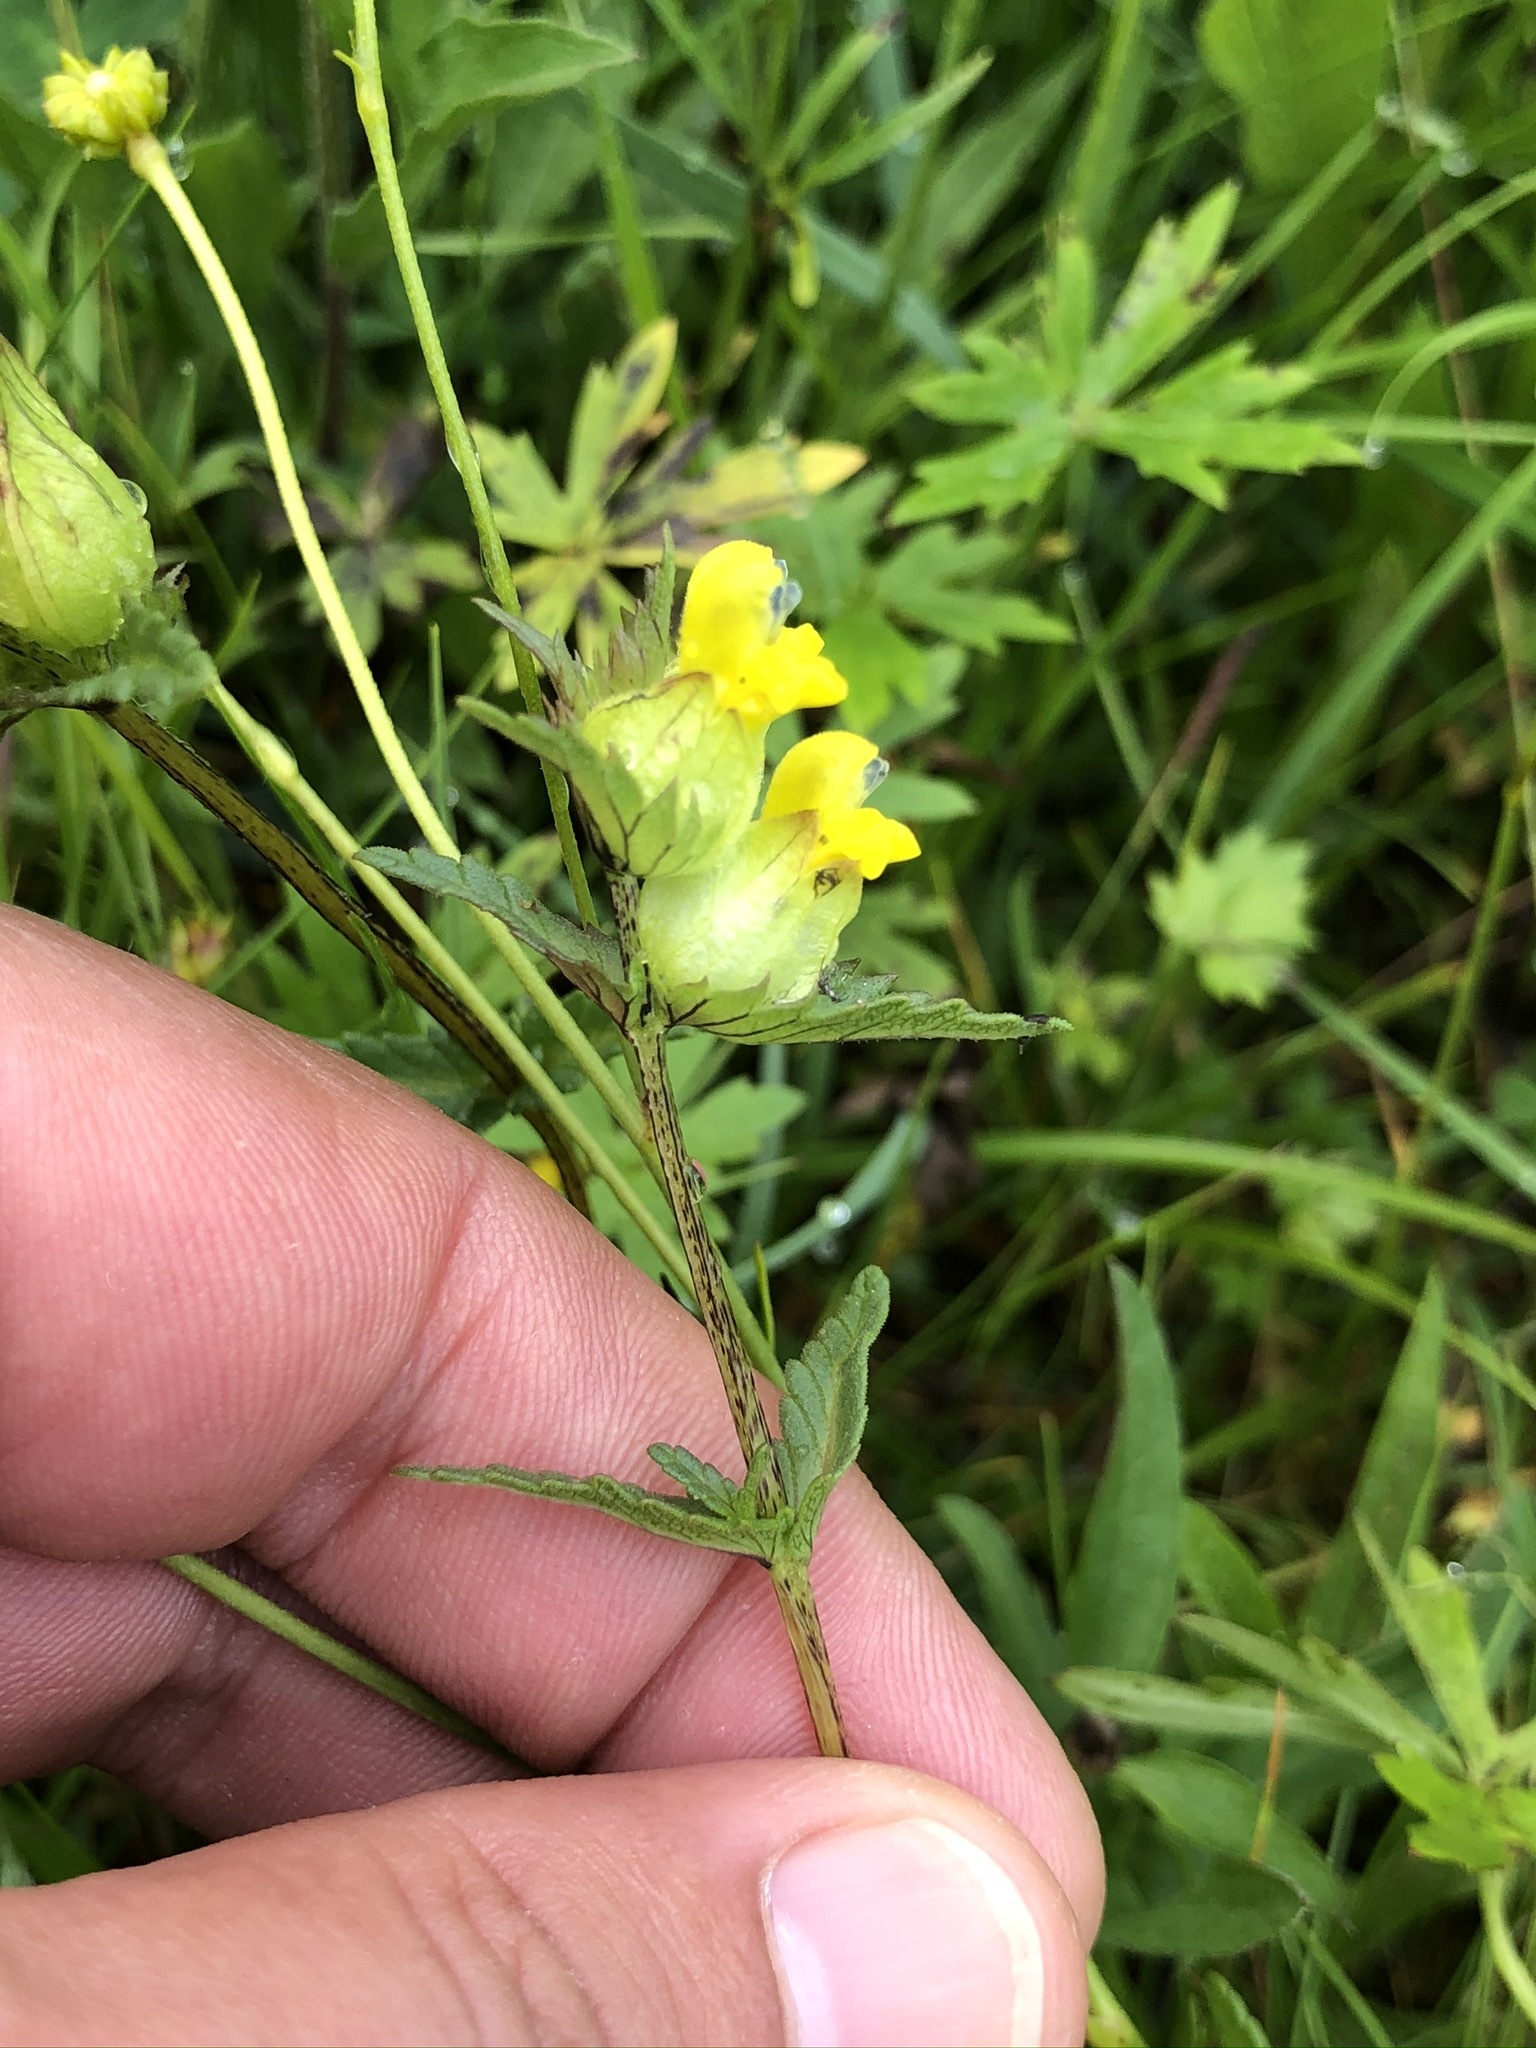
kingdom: Plantae
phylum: Tracheophyta
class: Magnoliopsida
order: Lamiales
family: Orobanchaceae
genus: Rhinanthus
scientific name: Rhinanthus minor
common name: Yellow-rattle
